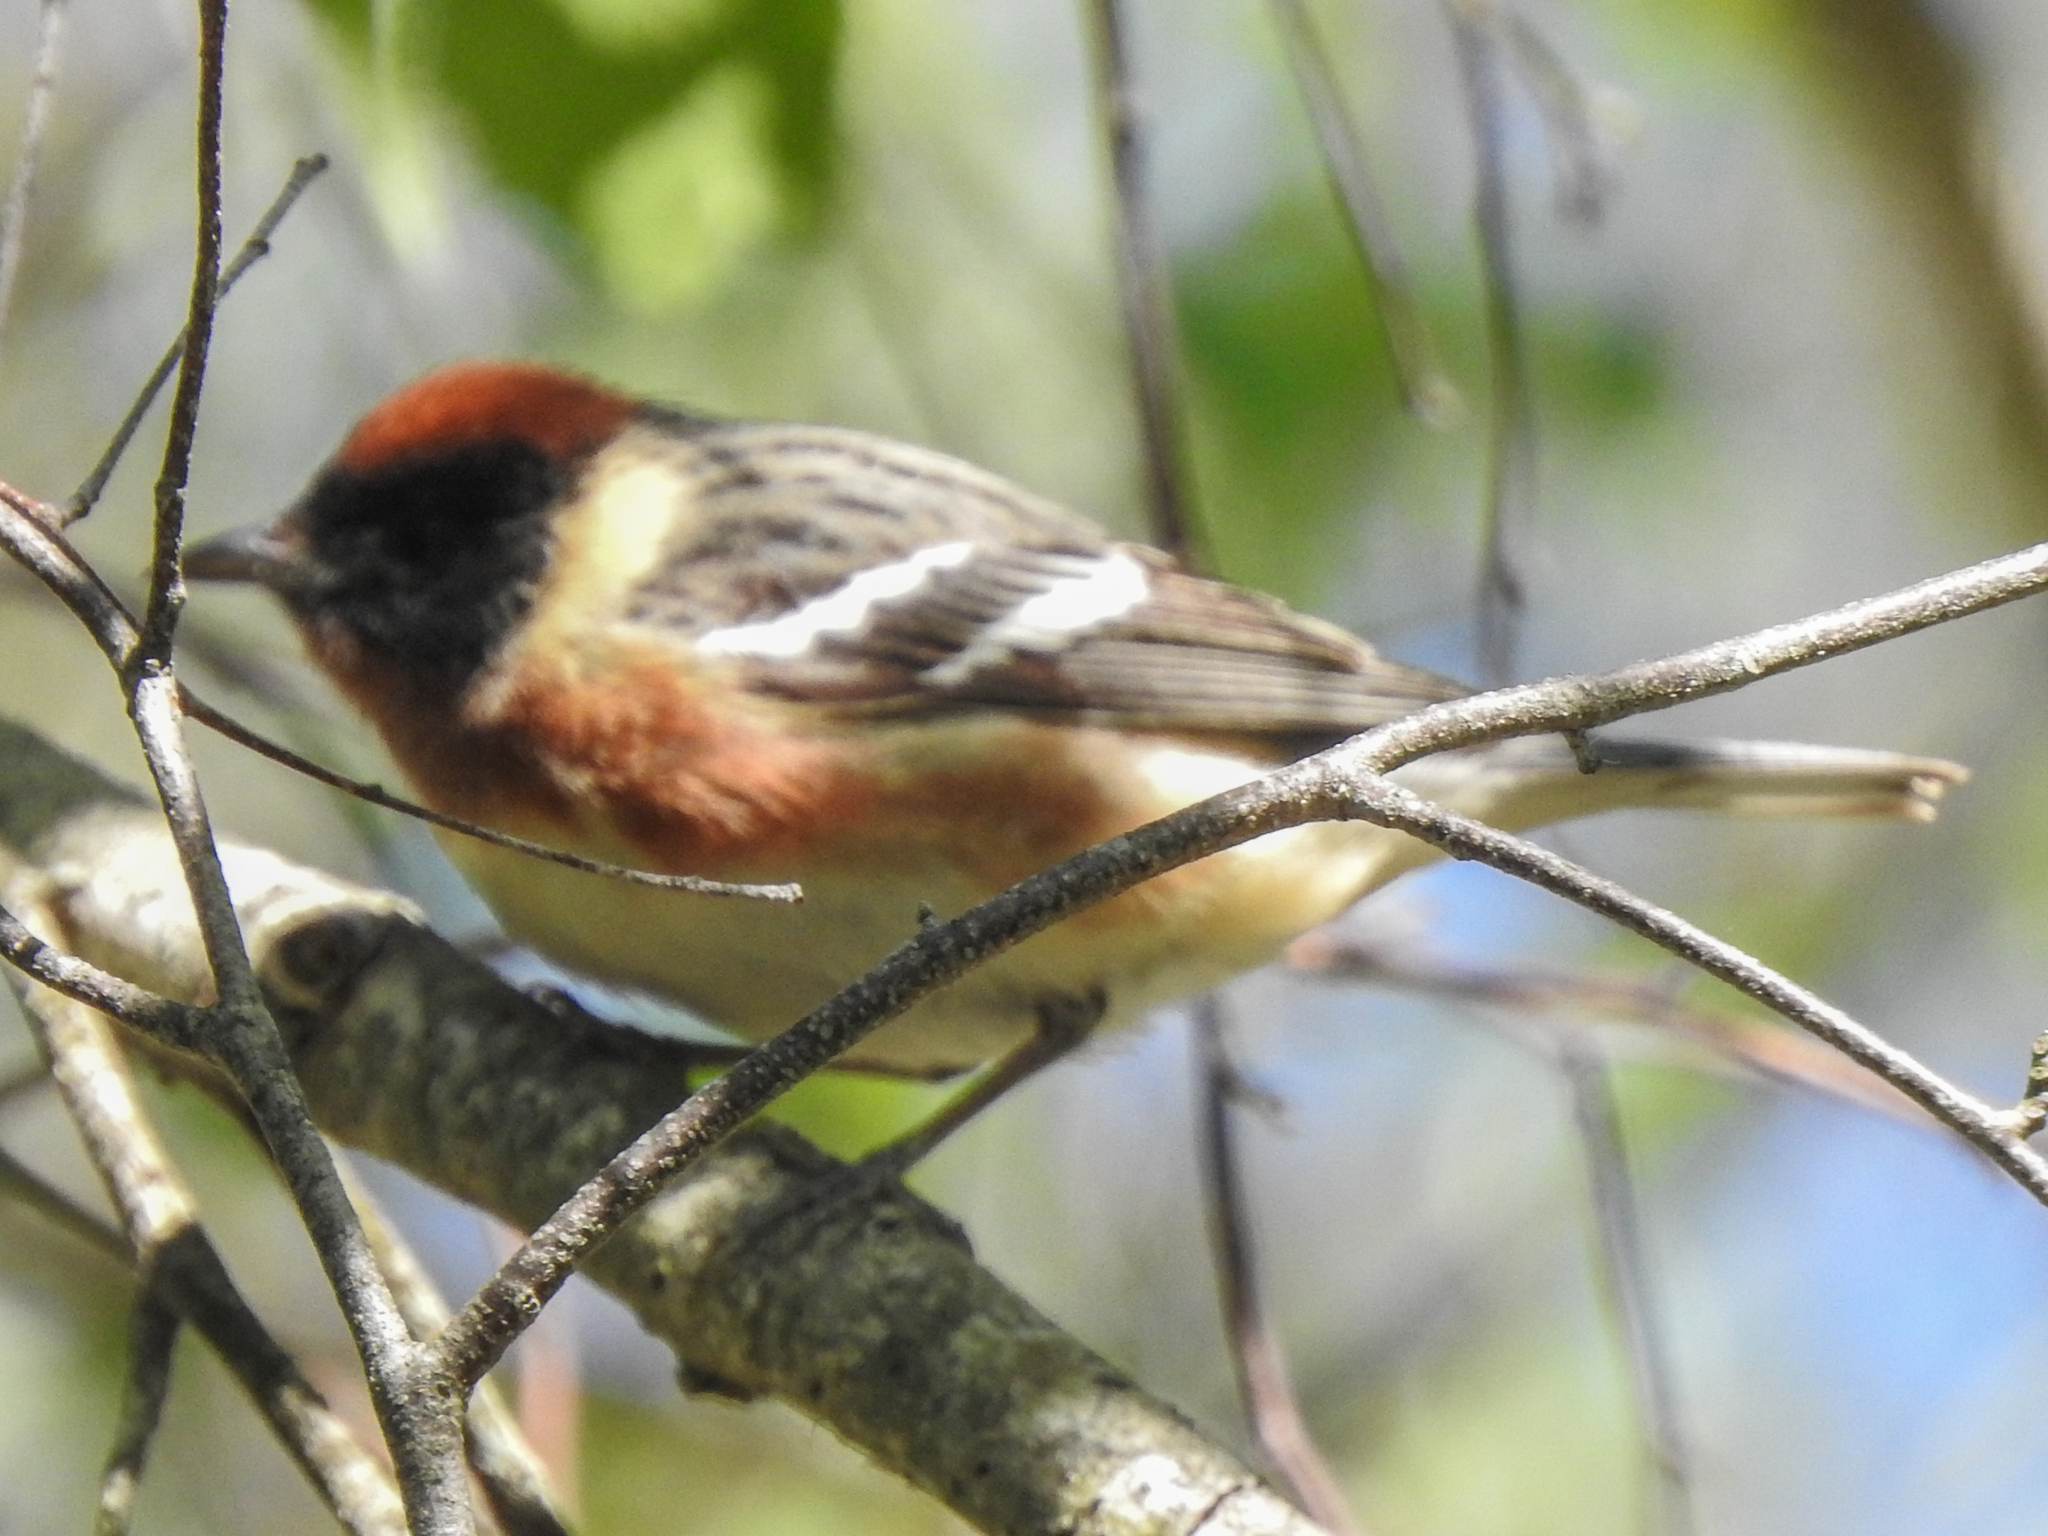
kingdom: Animalia
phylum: Chordata
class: Aves
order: Passeriformes
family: Parulidae
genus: Setophaga
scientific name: Setophaga castanea
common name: Bay-breasted warbler
